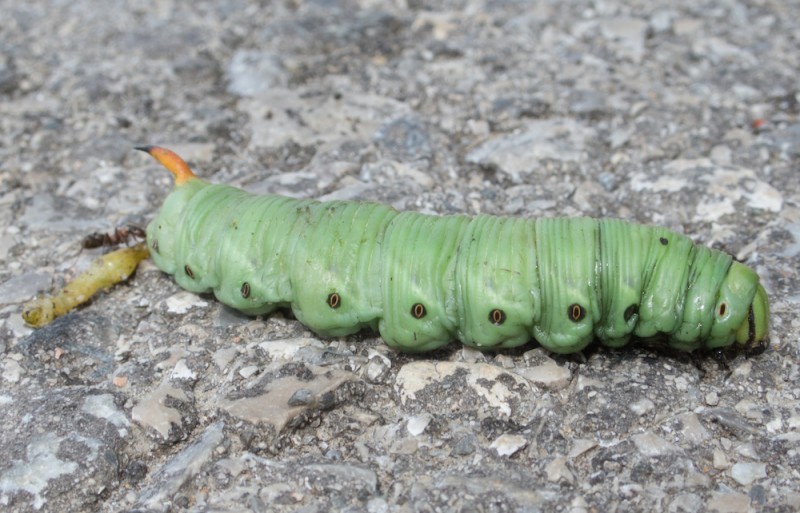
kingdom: Animalia
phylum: Arthropoda
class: Insecta
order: Lepidoptera
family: Sphingidae
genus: Agrius
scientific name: Agrius convolvuli
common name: Convolvulus hawkmoth
